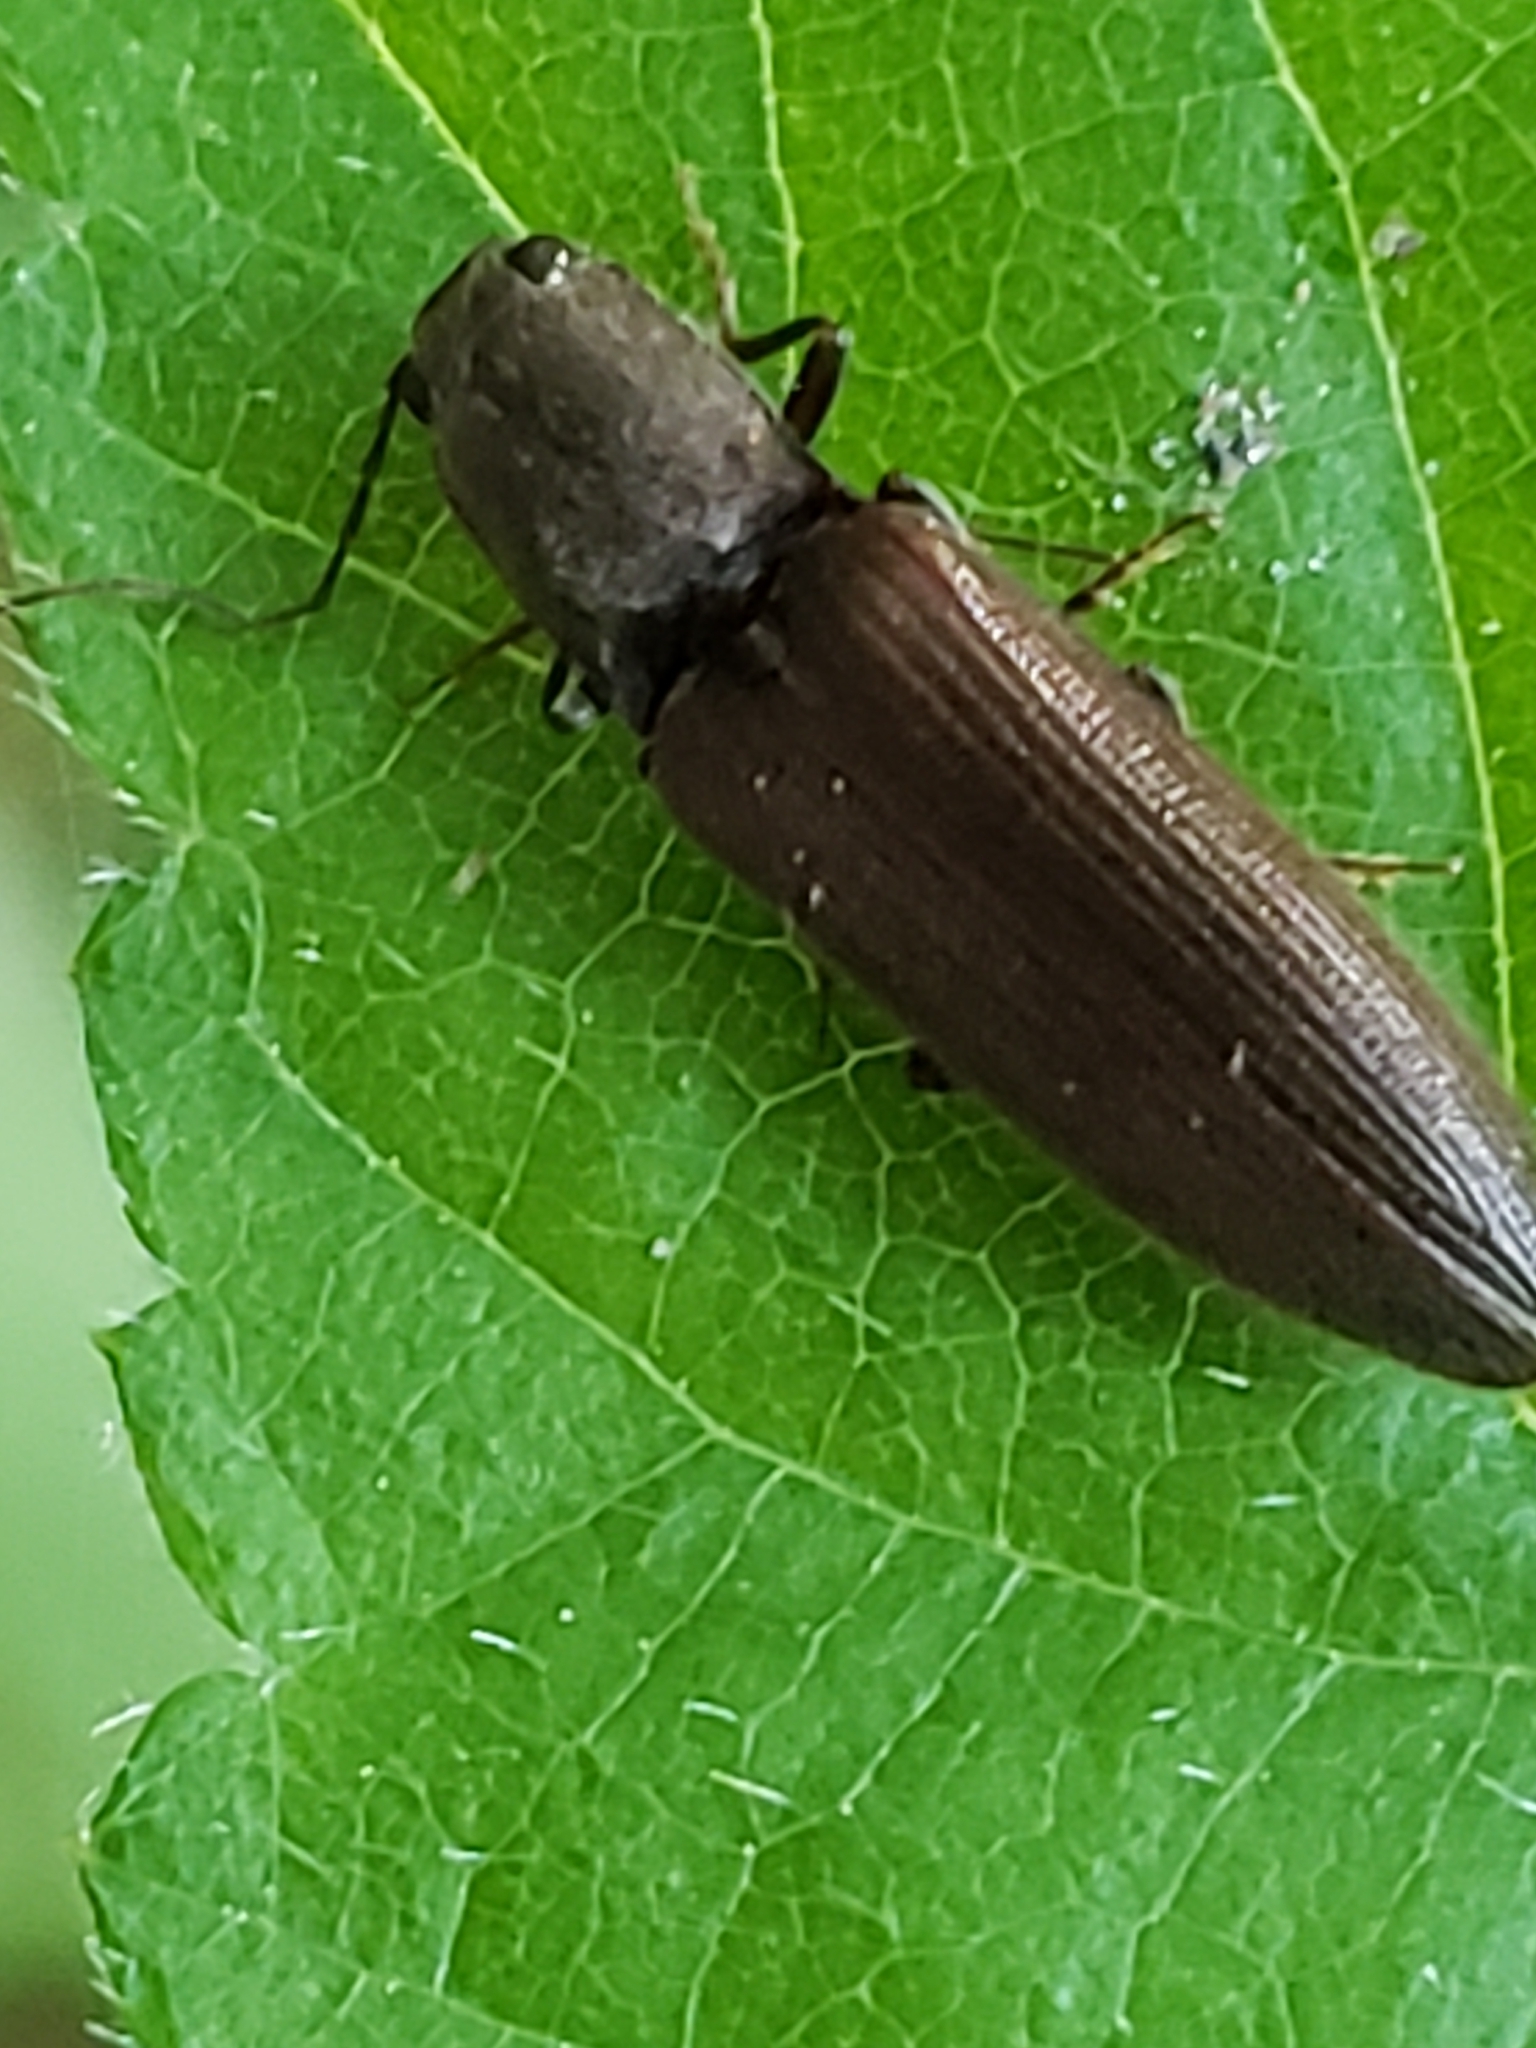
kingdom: Animalia
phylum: Arthropoda
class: Insecta
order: Coleoptera
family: Elateridae
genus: Proludius
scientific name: Proludius pyrros
